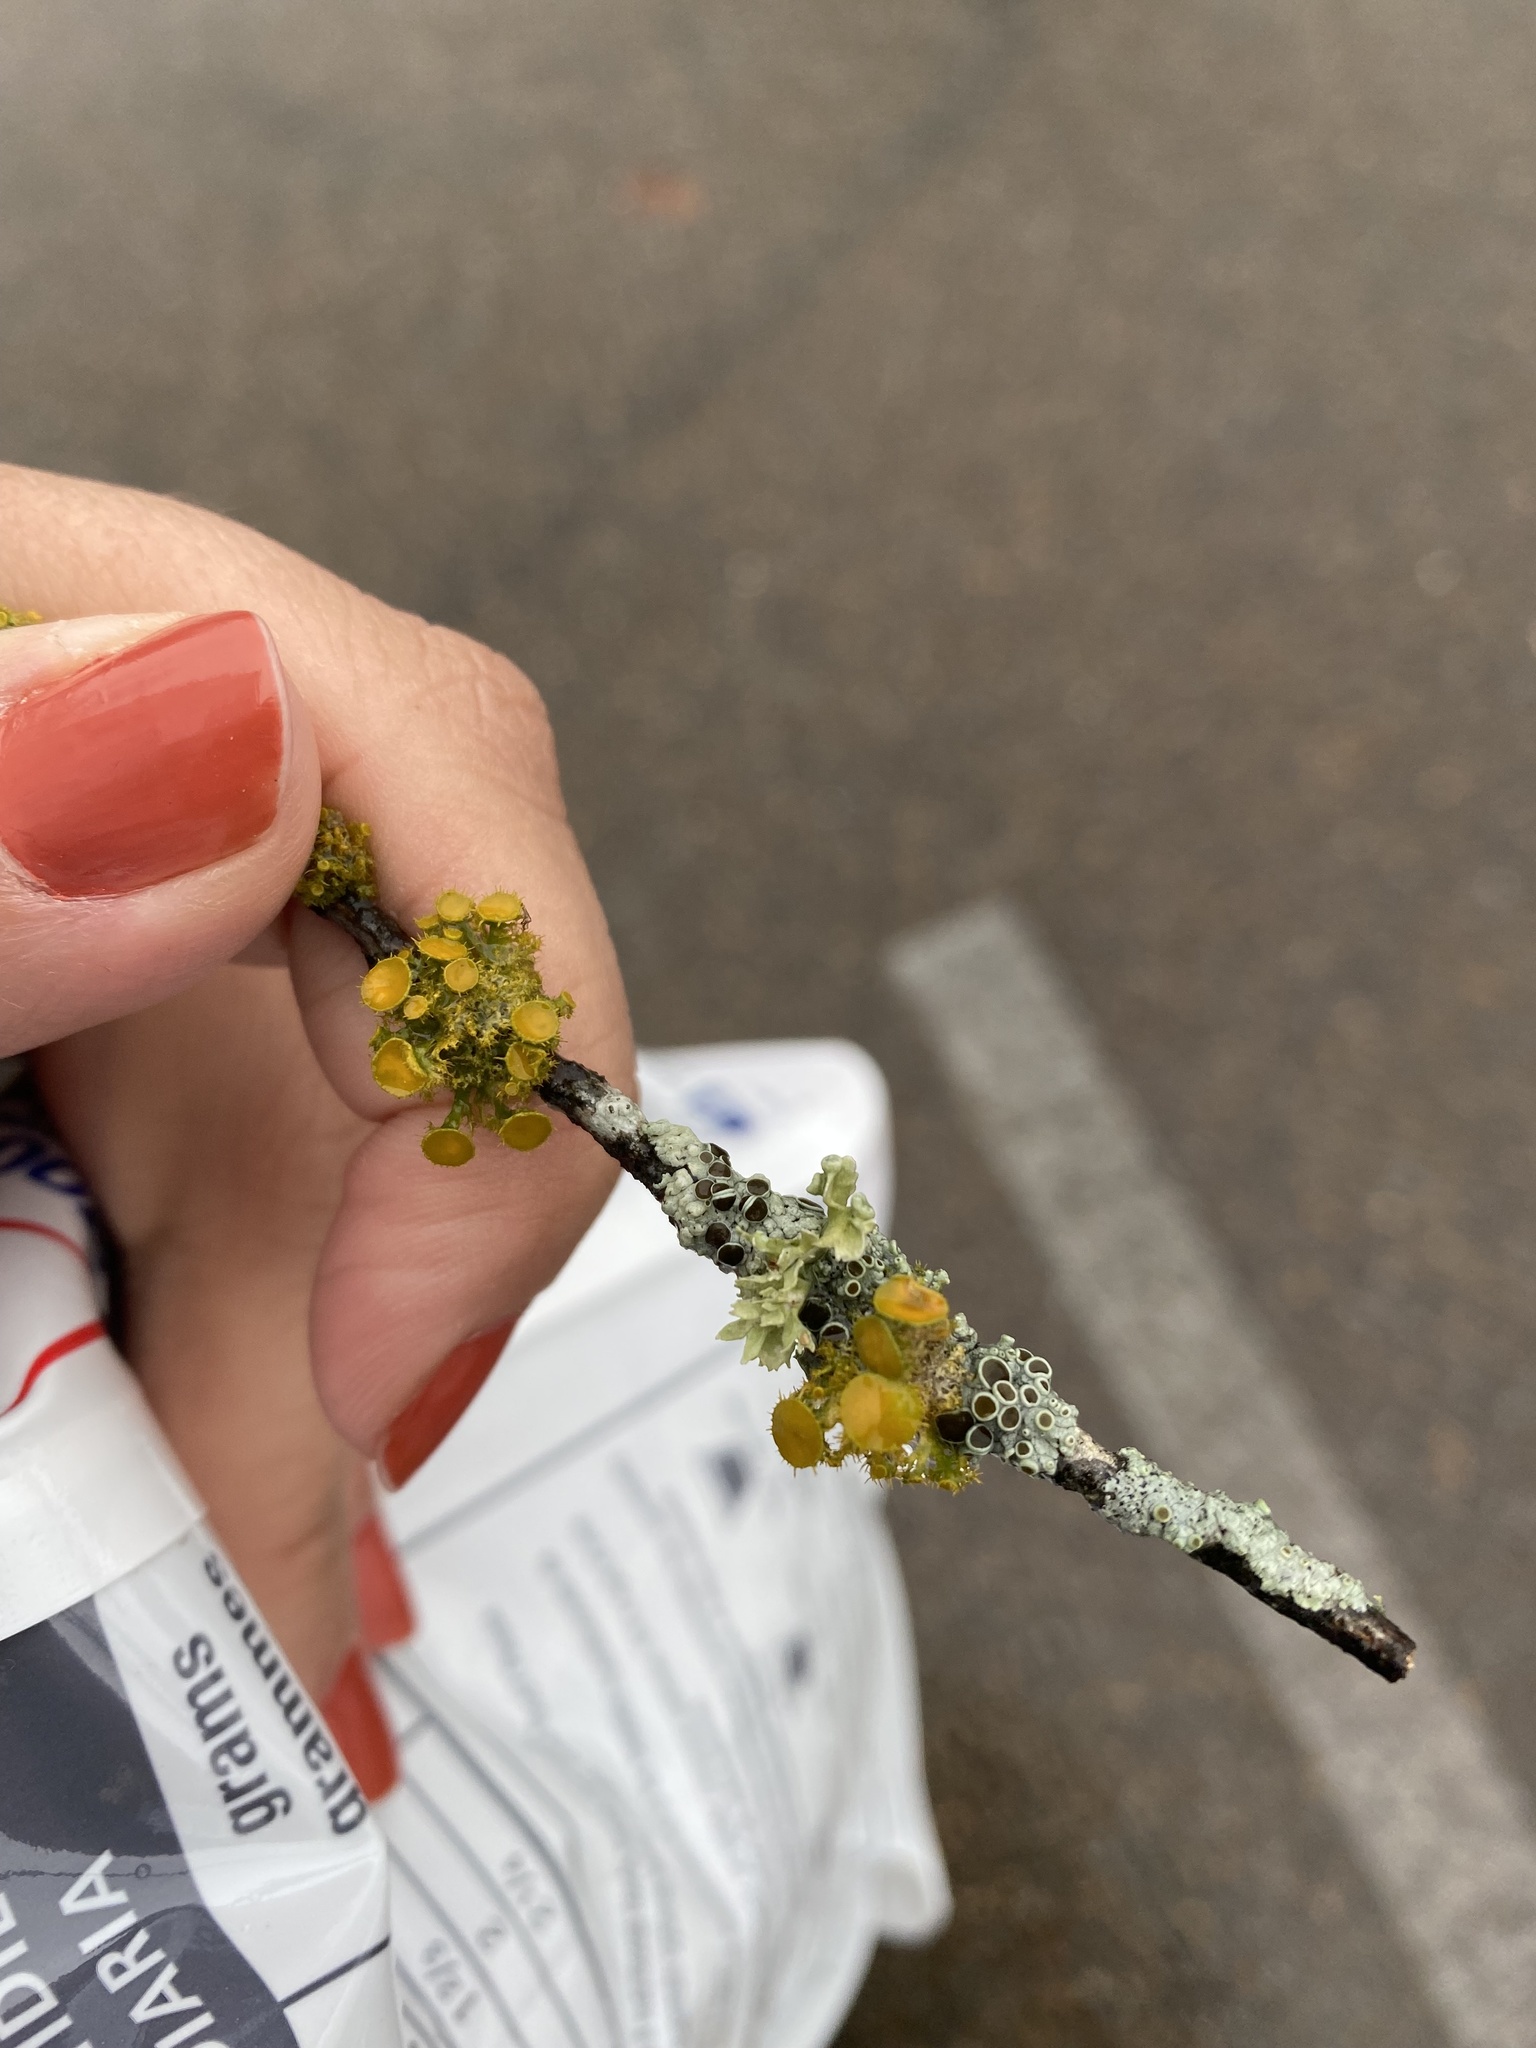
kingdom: Fungi
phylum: Ascomycota
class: Lecanoromycetes
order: Teloschistales
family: Teloschistaceae
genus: Niorma
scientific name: Niorma chrysophthalma
